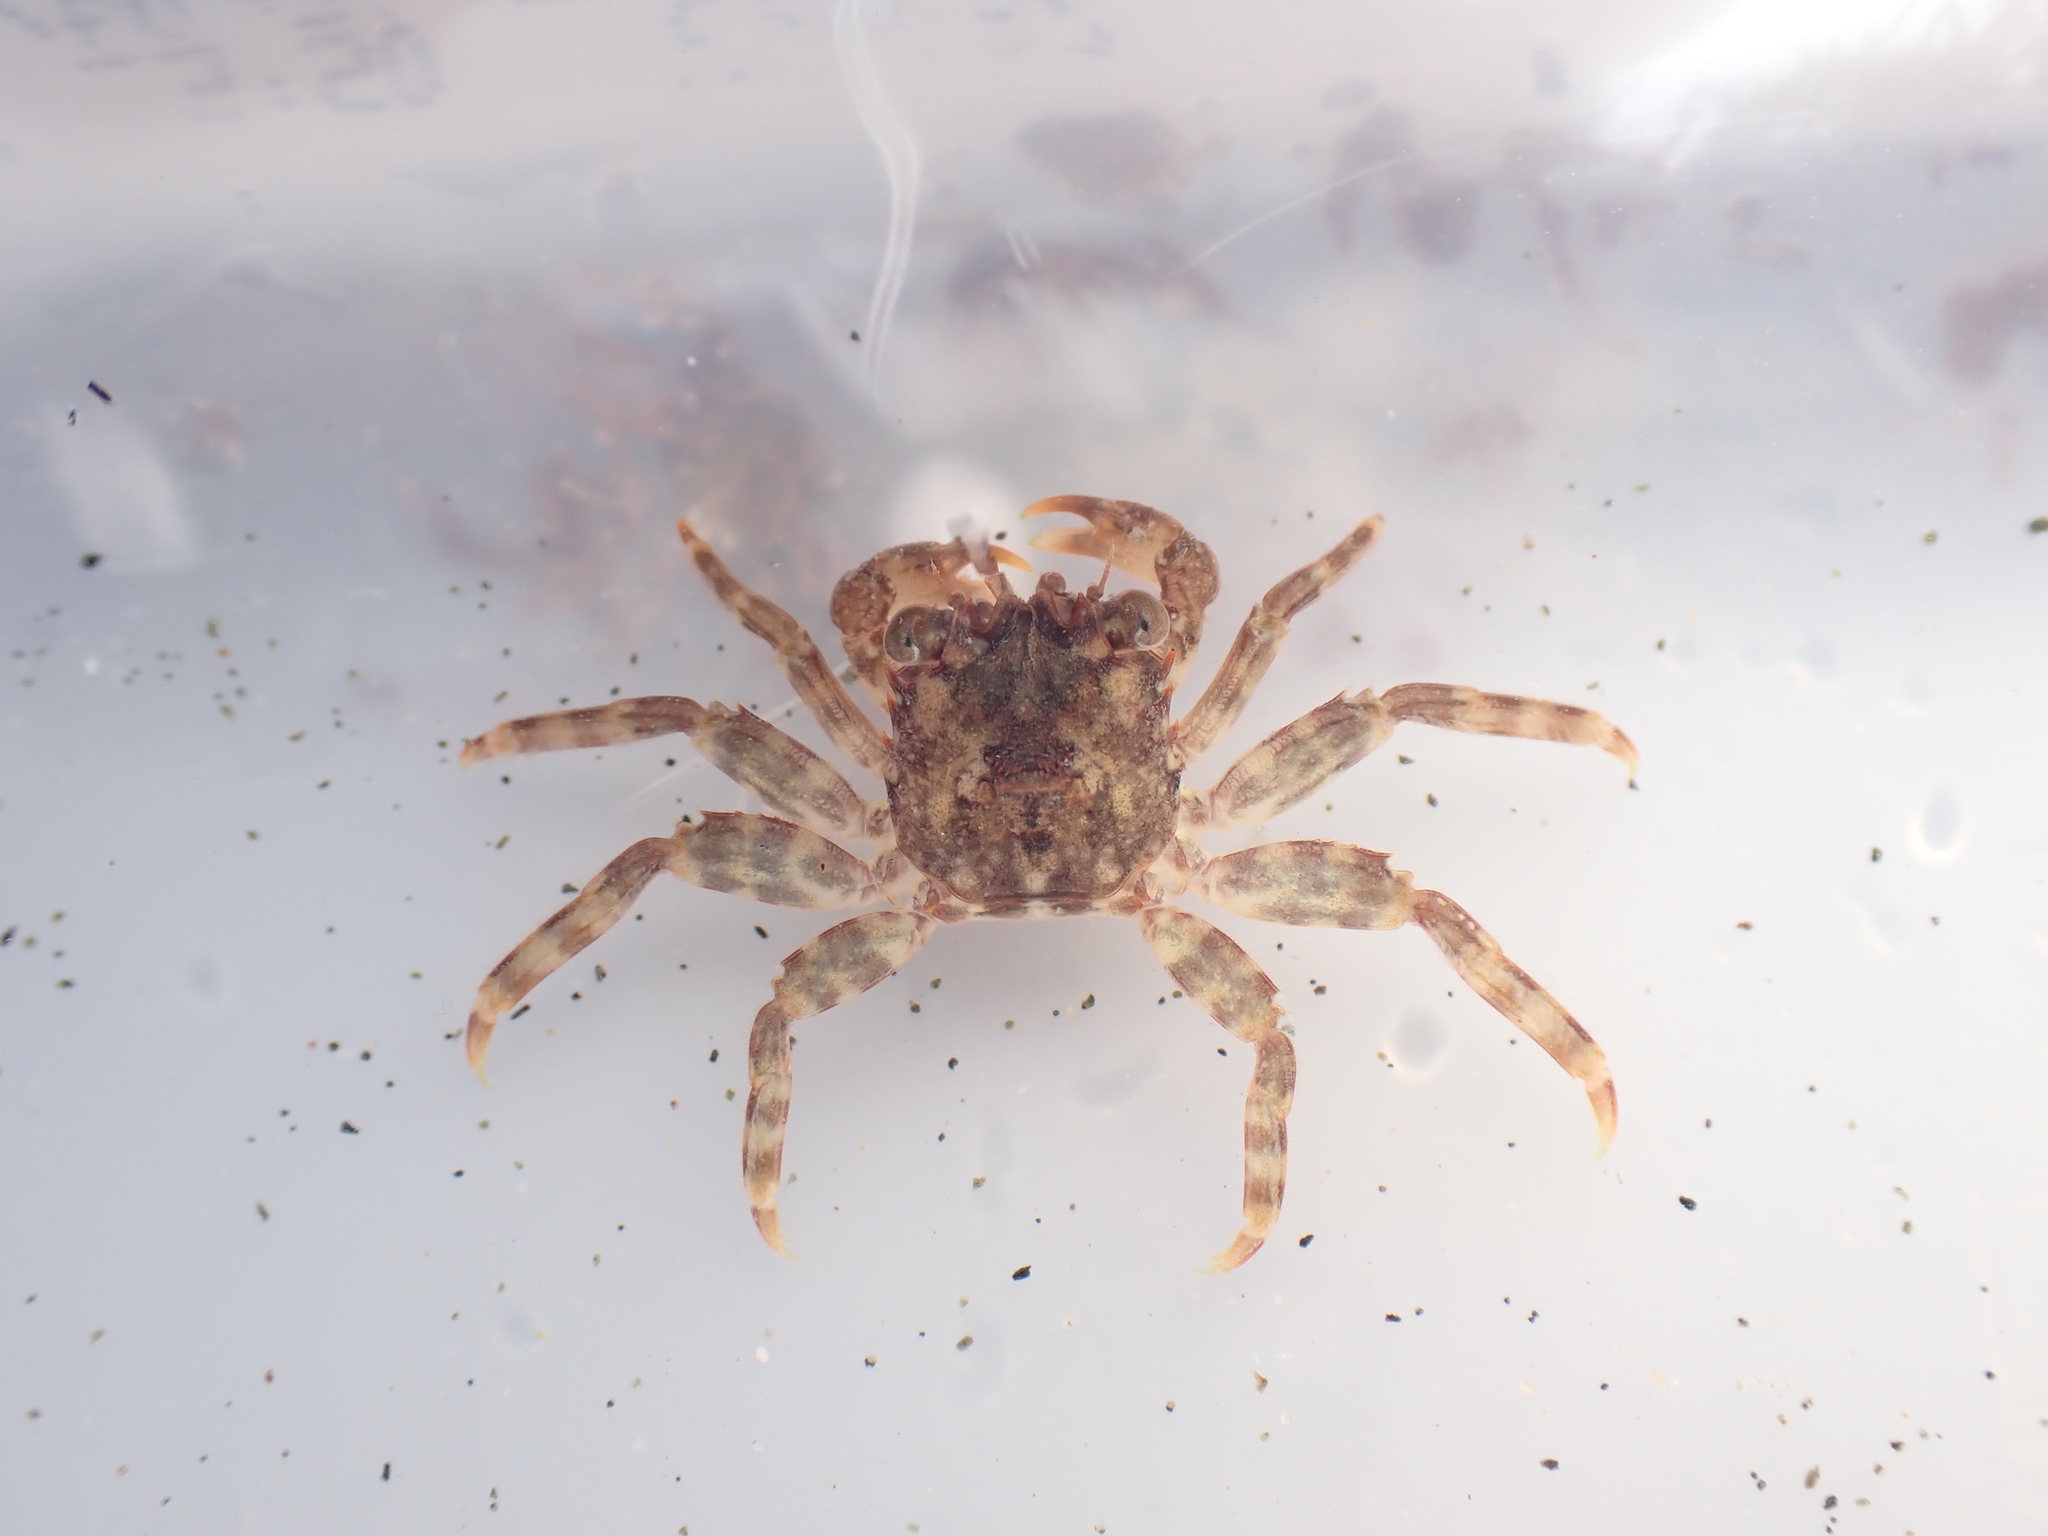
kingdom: Animalia
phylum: Arthropoda
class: Malacostraca
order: Decapoda
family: Plagusiidae
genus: Guinusia
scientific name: Guinusia chabrus
